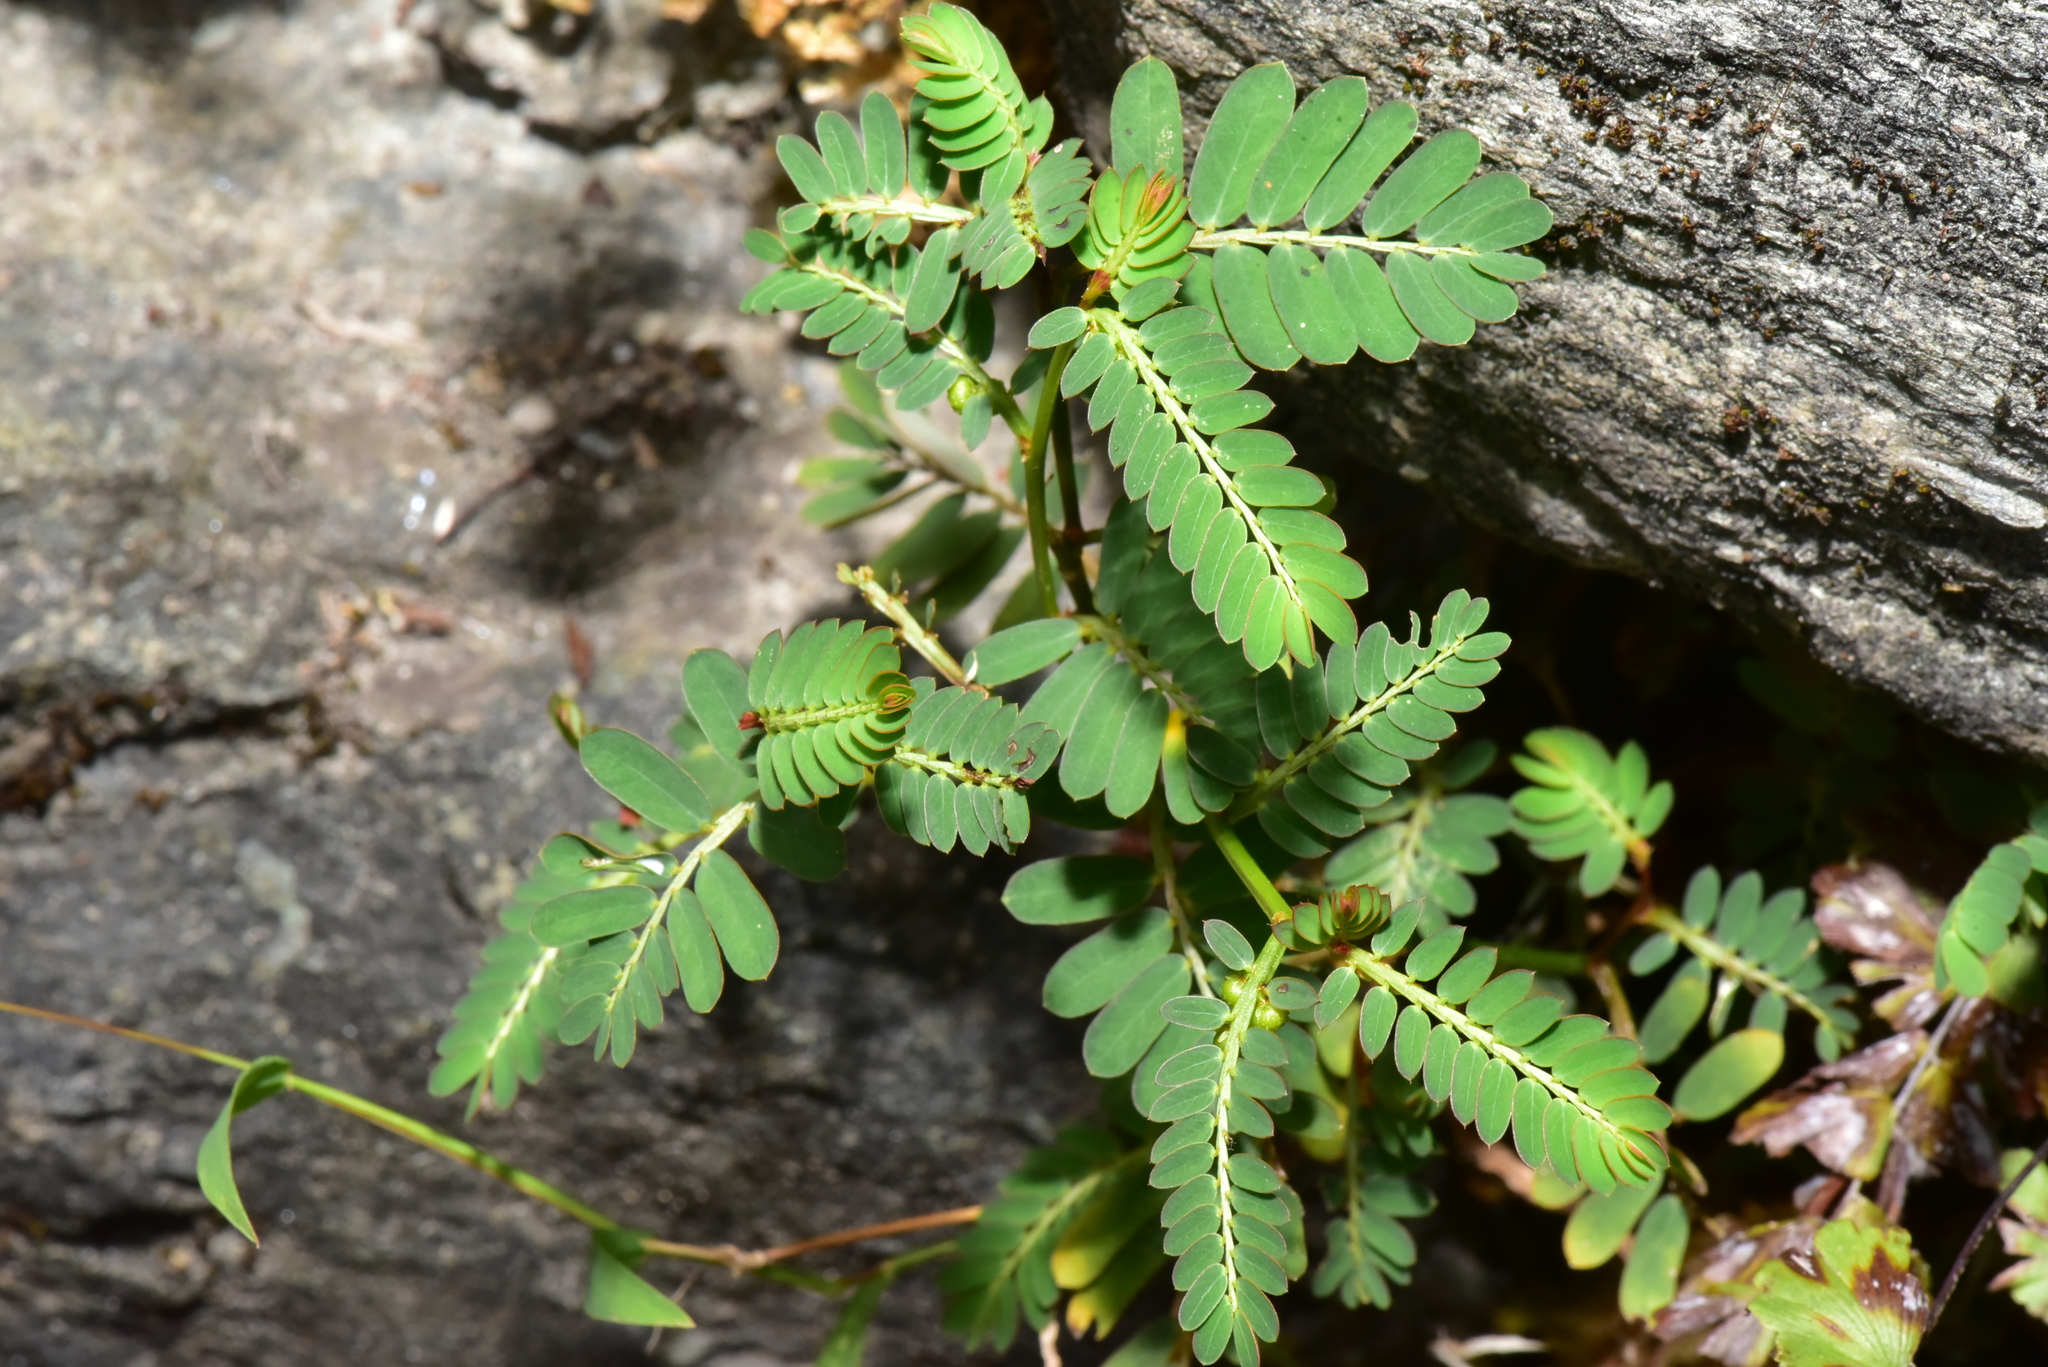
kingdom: Plantae
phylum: Tracheophyta
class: Magnoliopsida
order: Malpighiales
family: Phyllanthaceae
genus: Phyllanthus
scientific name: Phyllanthus urinaria
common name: Chamber bitter
